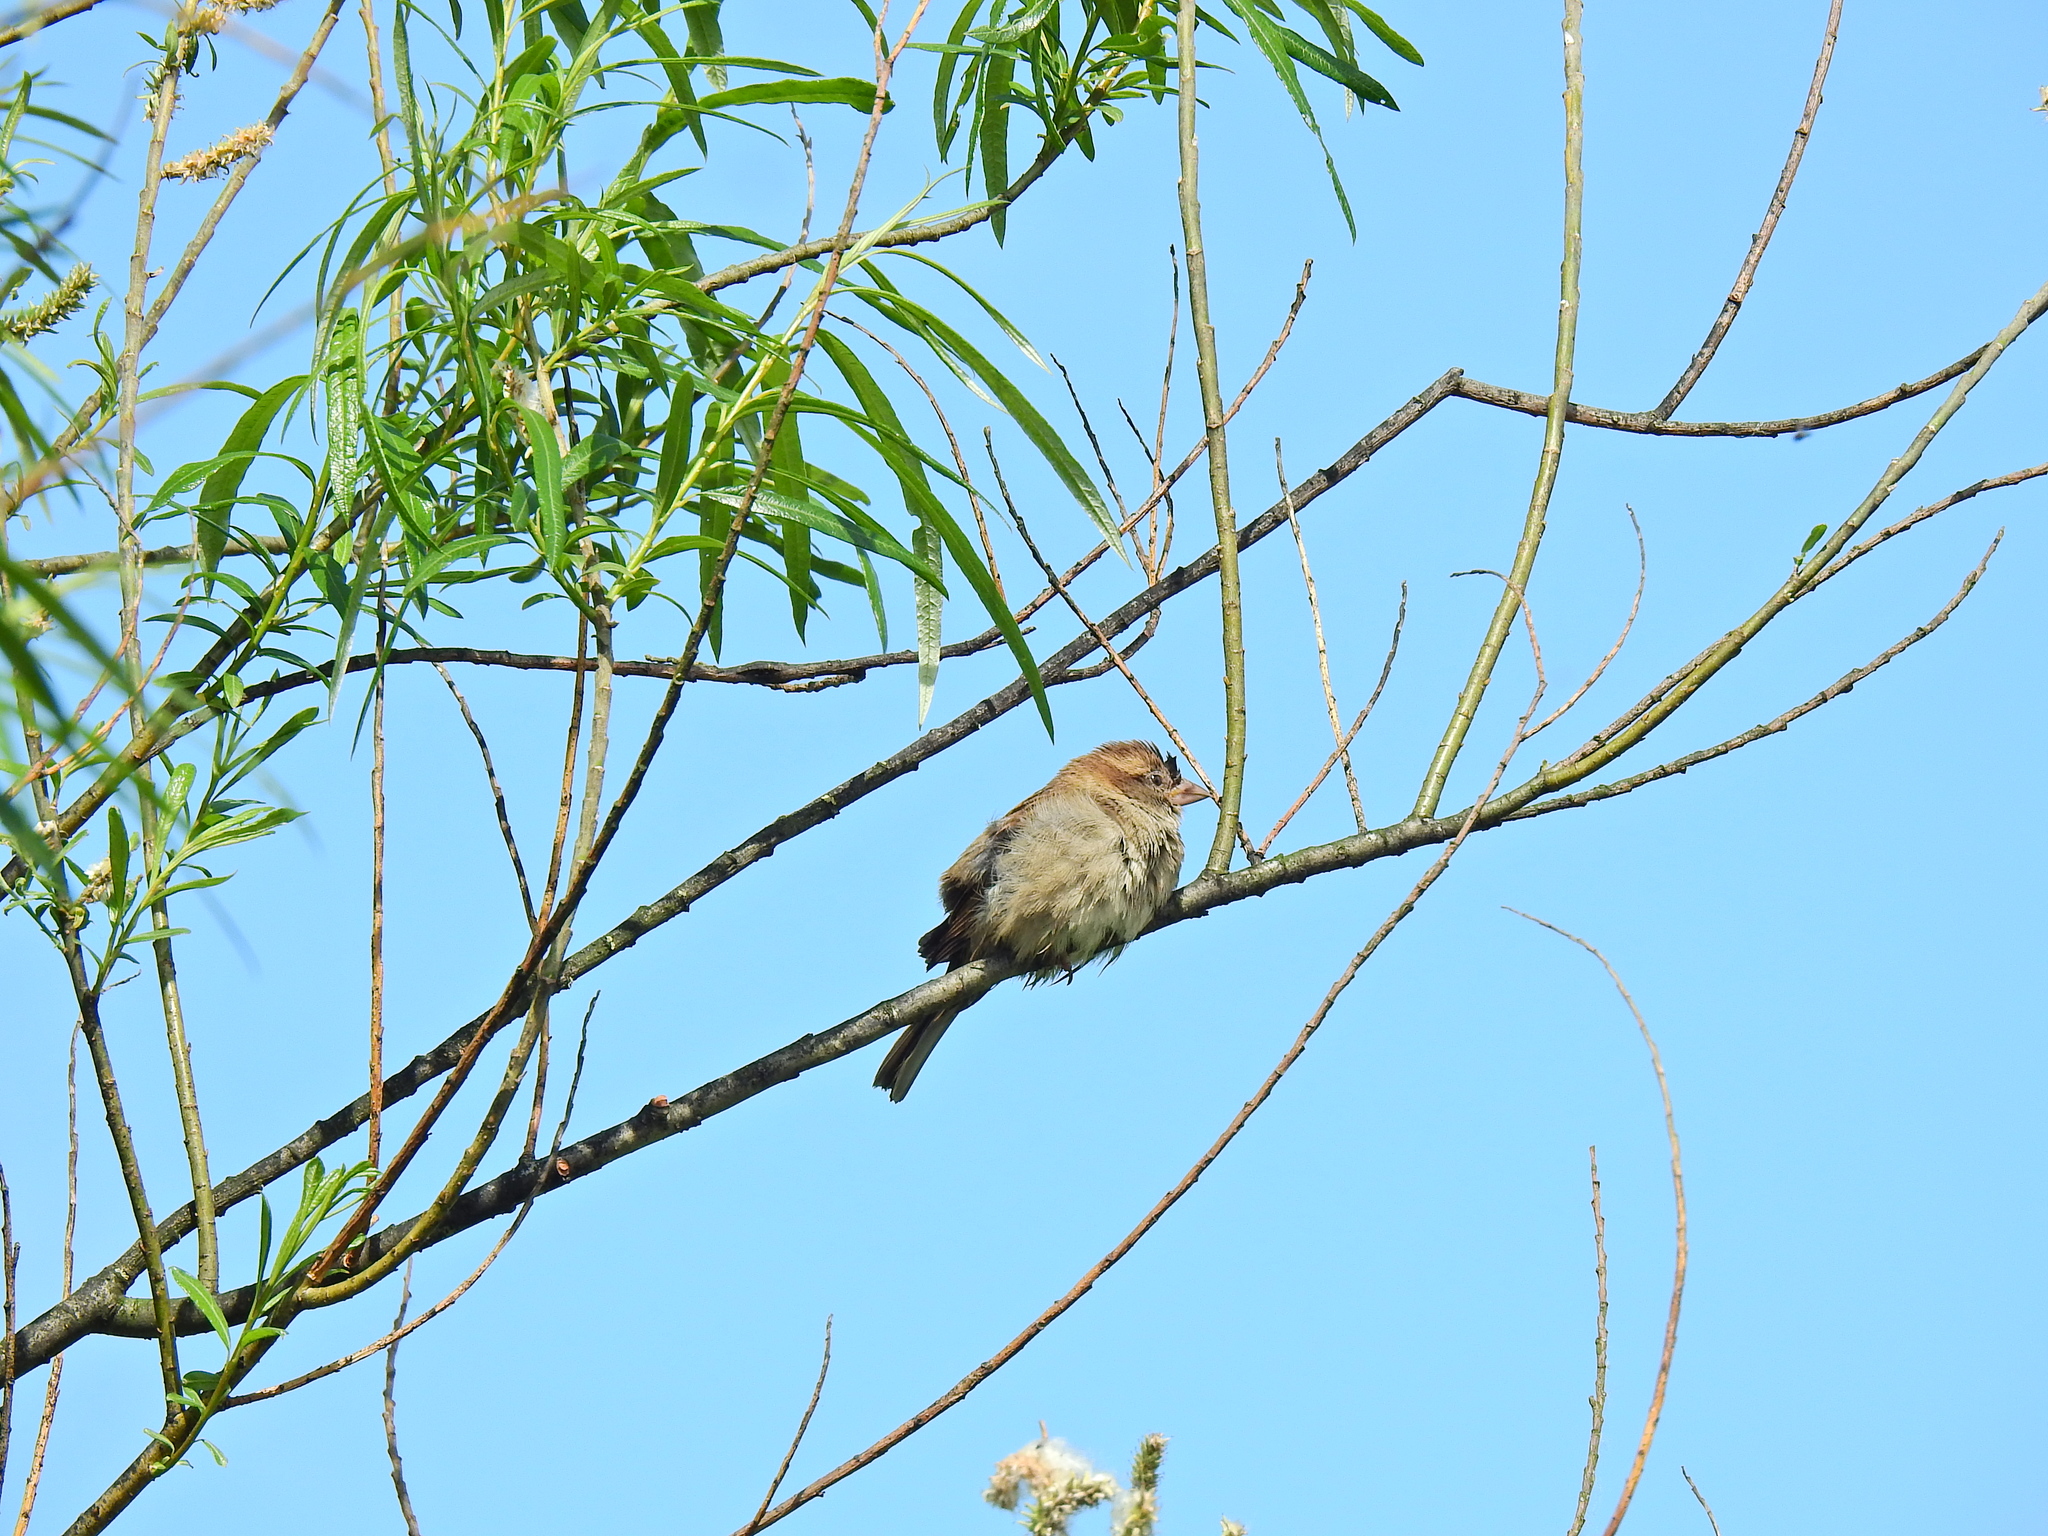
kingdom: Animalia
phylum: Chordata
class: Aves
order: Passeriformes
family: Passeridae
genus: Passer
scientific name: Passer domesticus
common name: House sparrow
